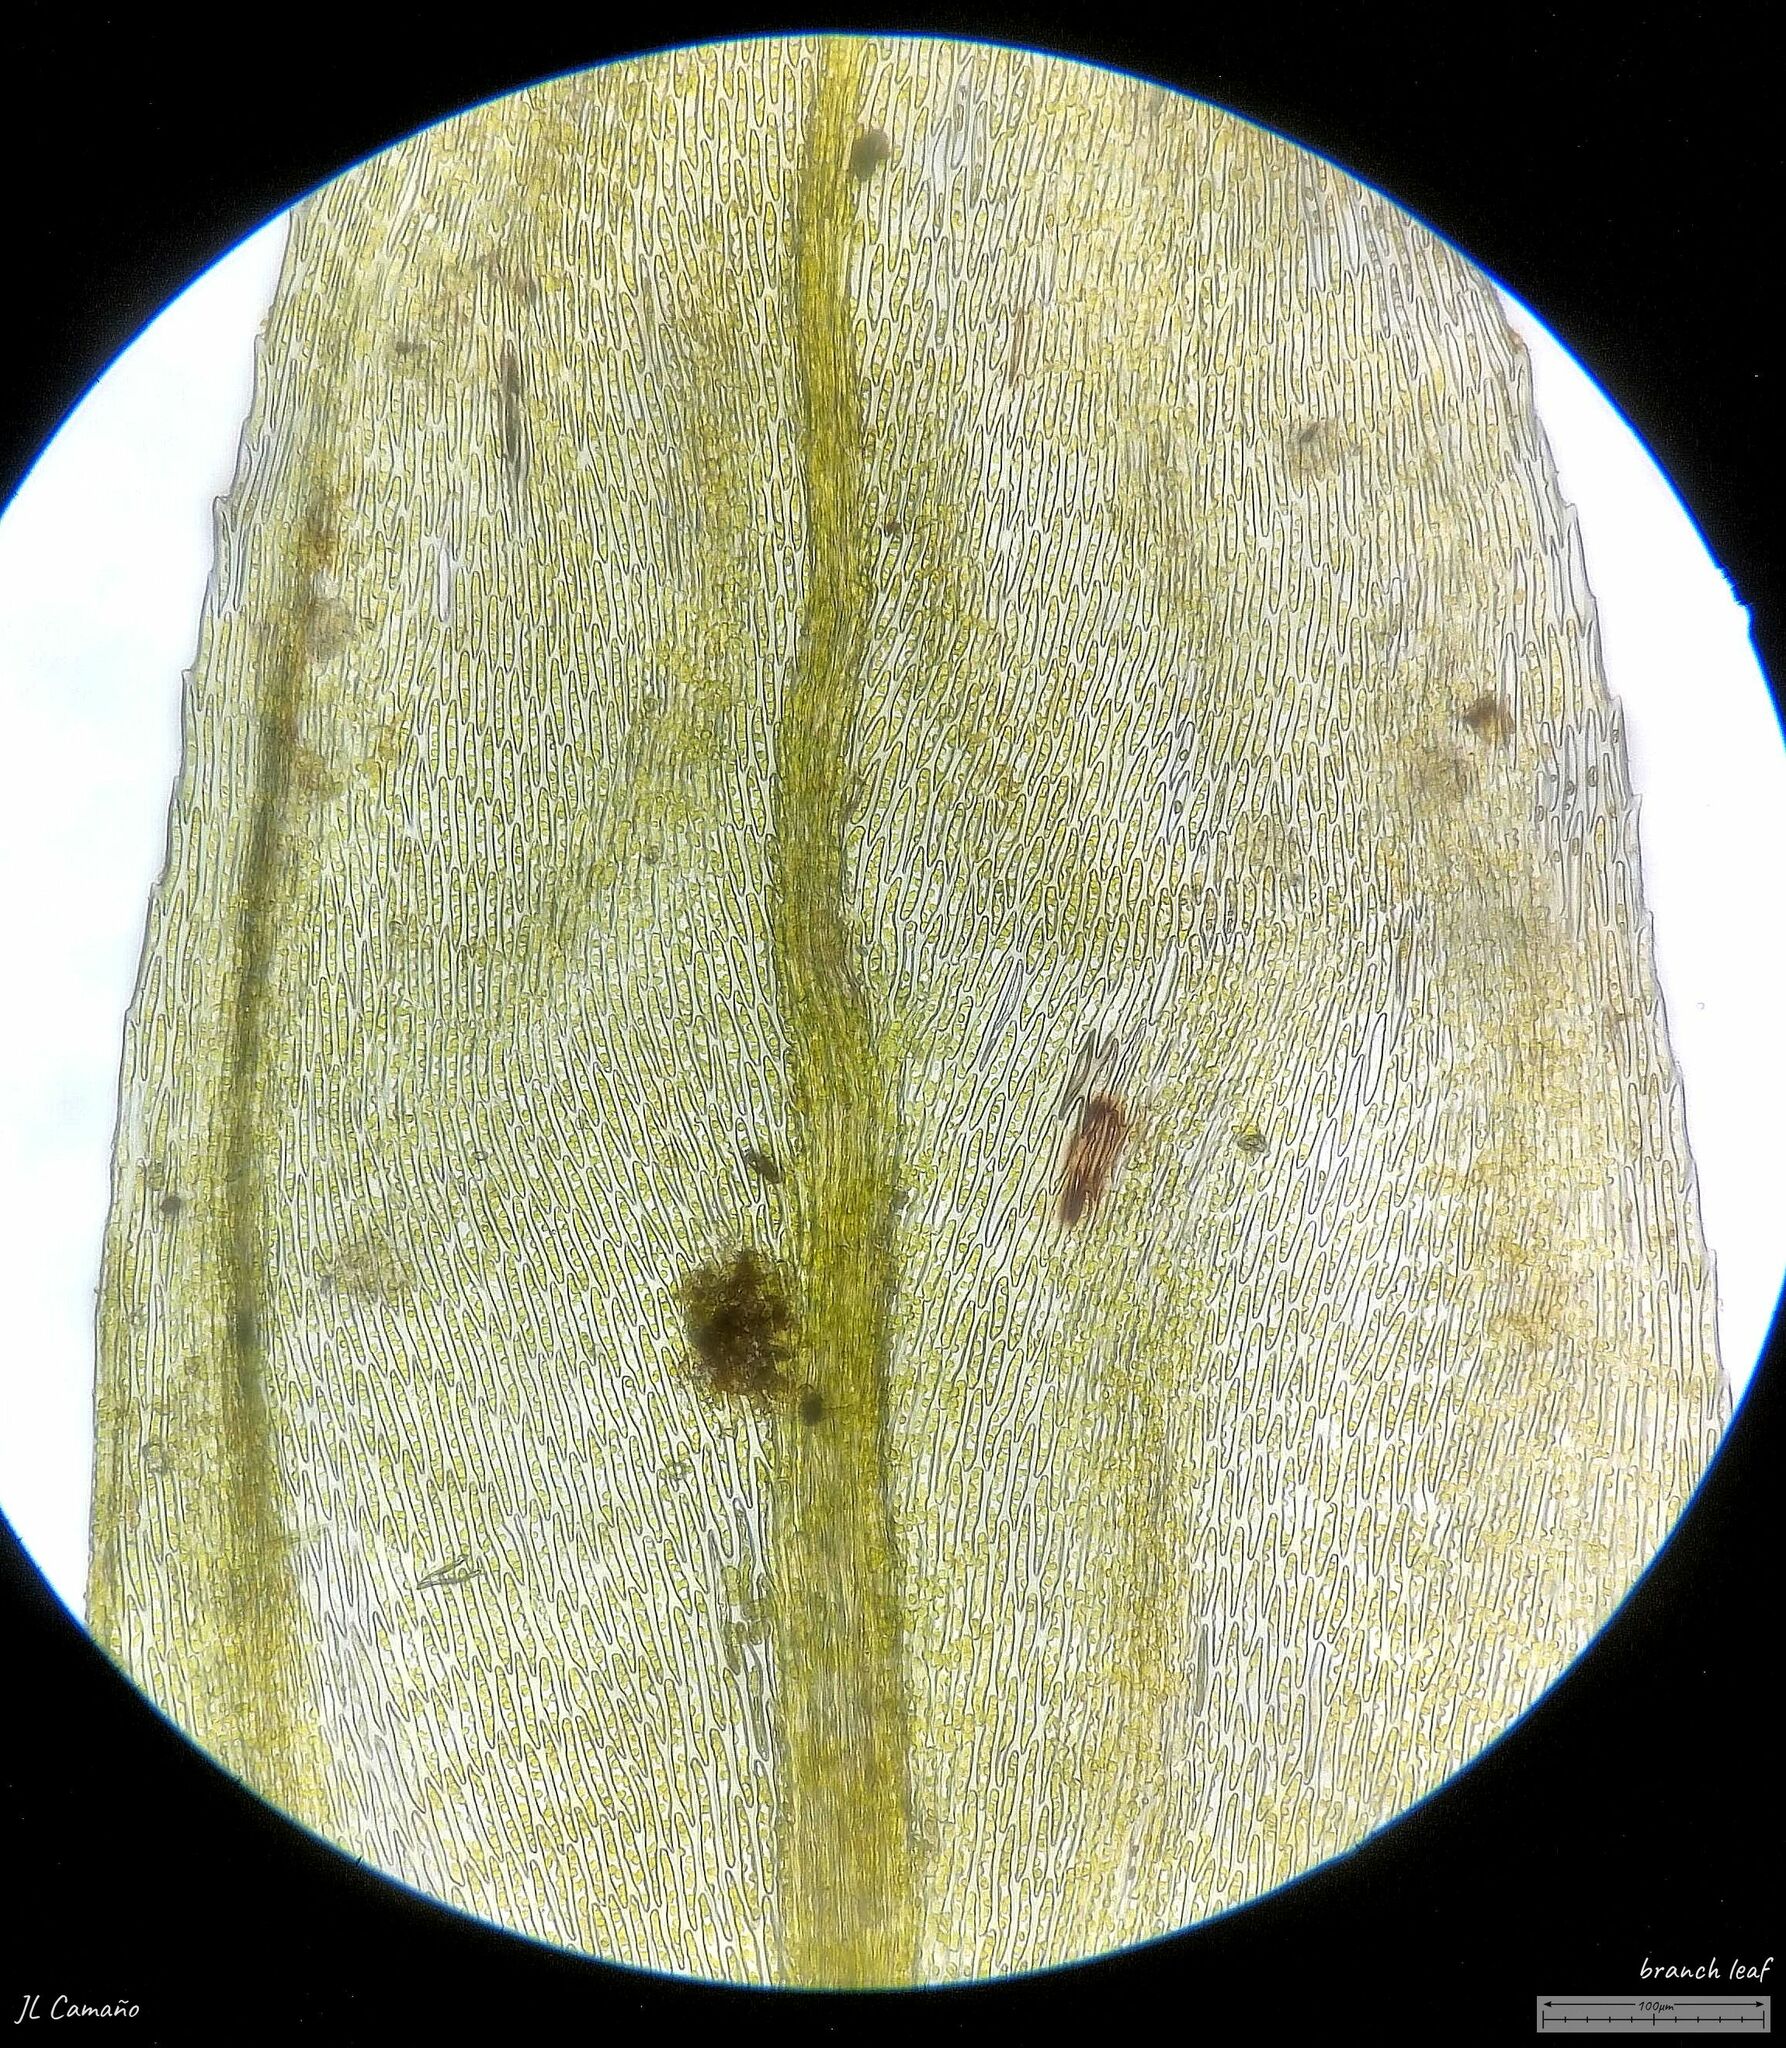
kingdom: Plantae
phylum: Bryophyta
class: Bryopsida
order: Hypnales
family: Brachytheciaceae
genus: Cirriphyllum
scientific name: Cirriphyllum crassinervium
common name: Beech feather-moss
